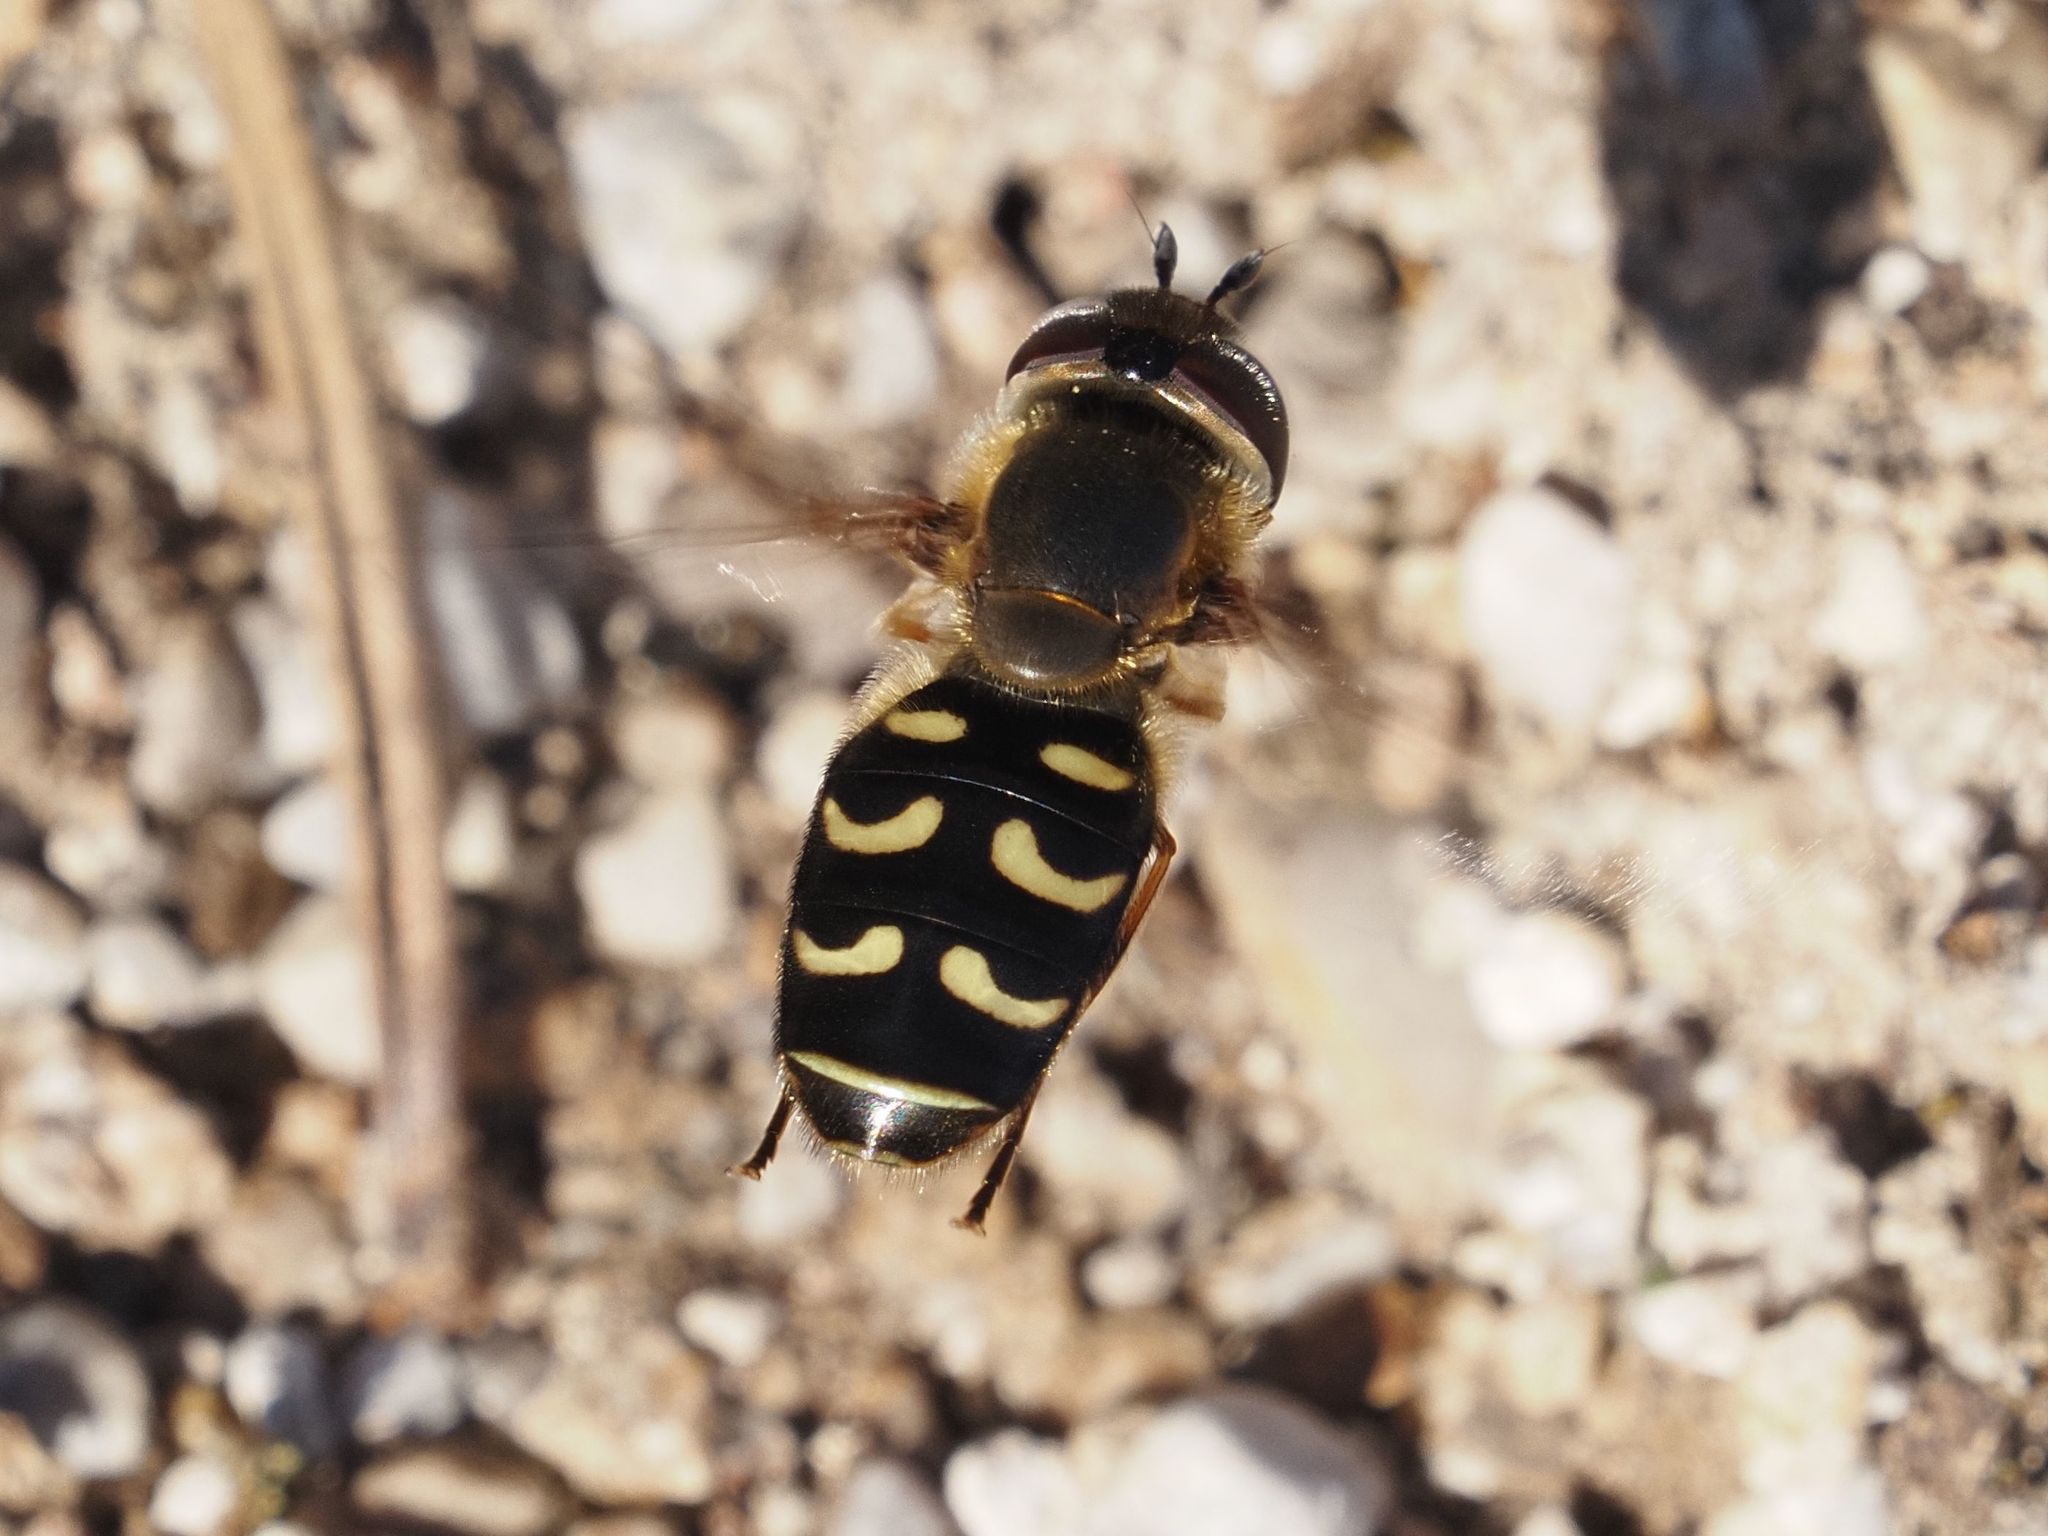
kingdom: Animalia
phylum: Arthropoda
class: Insecta
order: Diptera
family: Syrphidae
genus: Scaeva
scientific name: Scaeva selenitica
